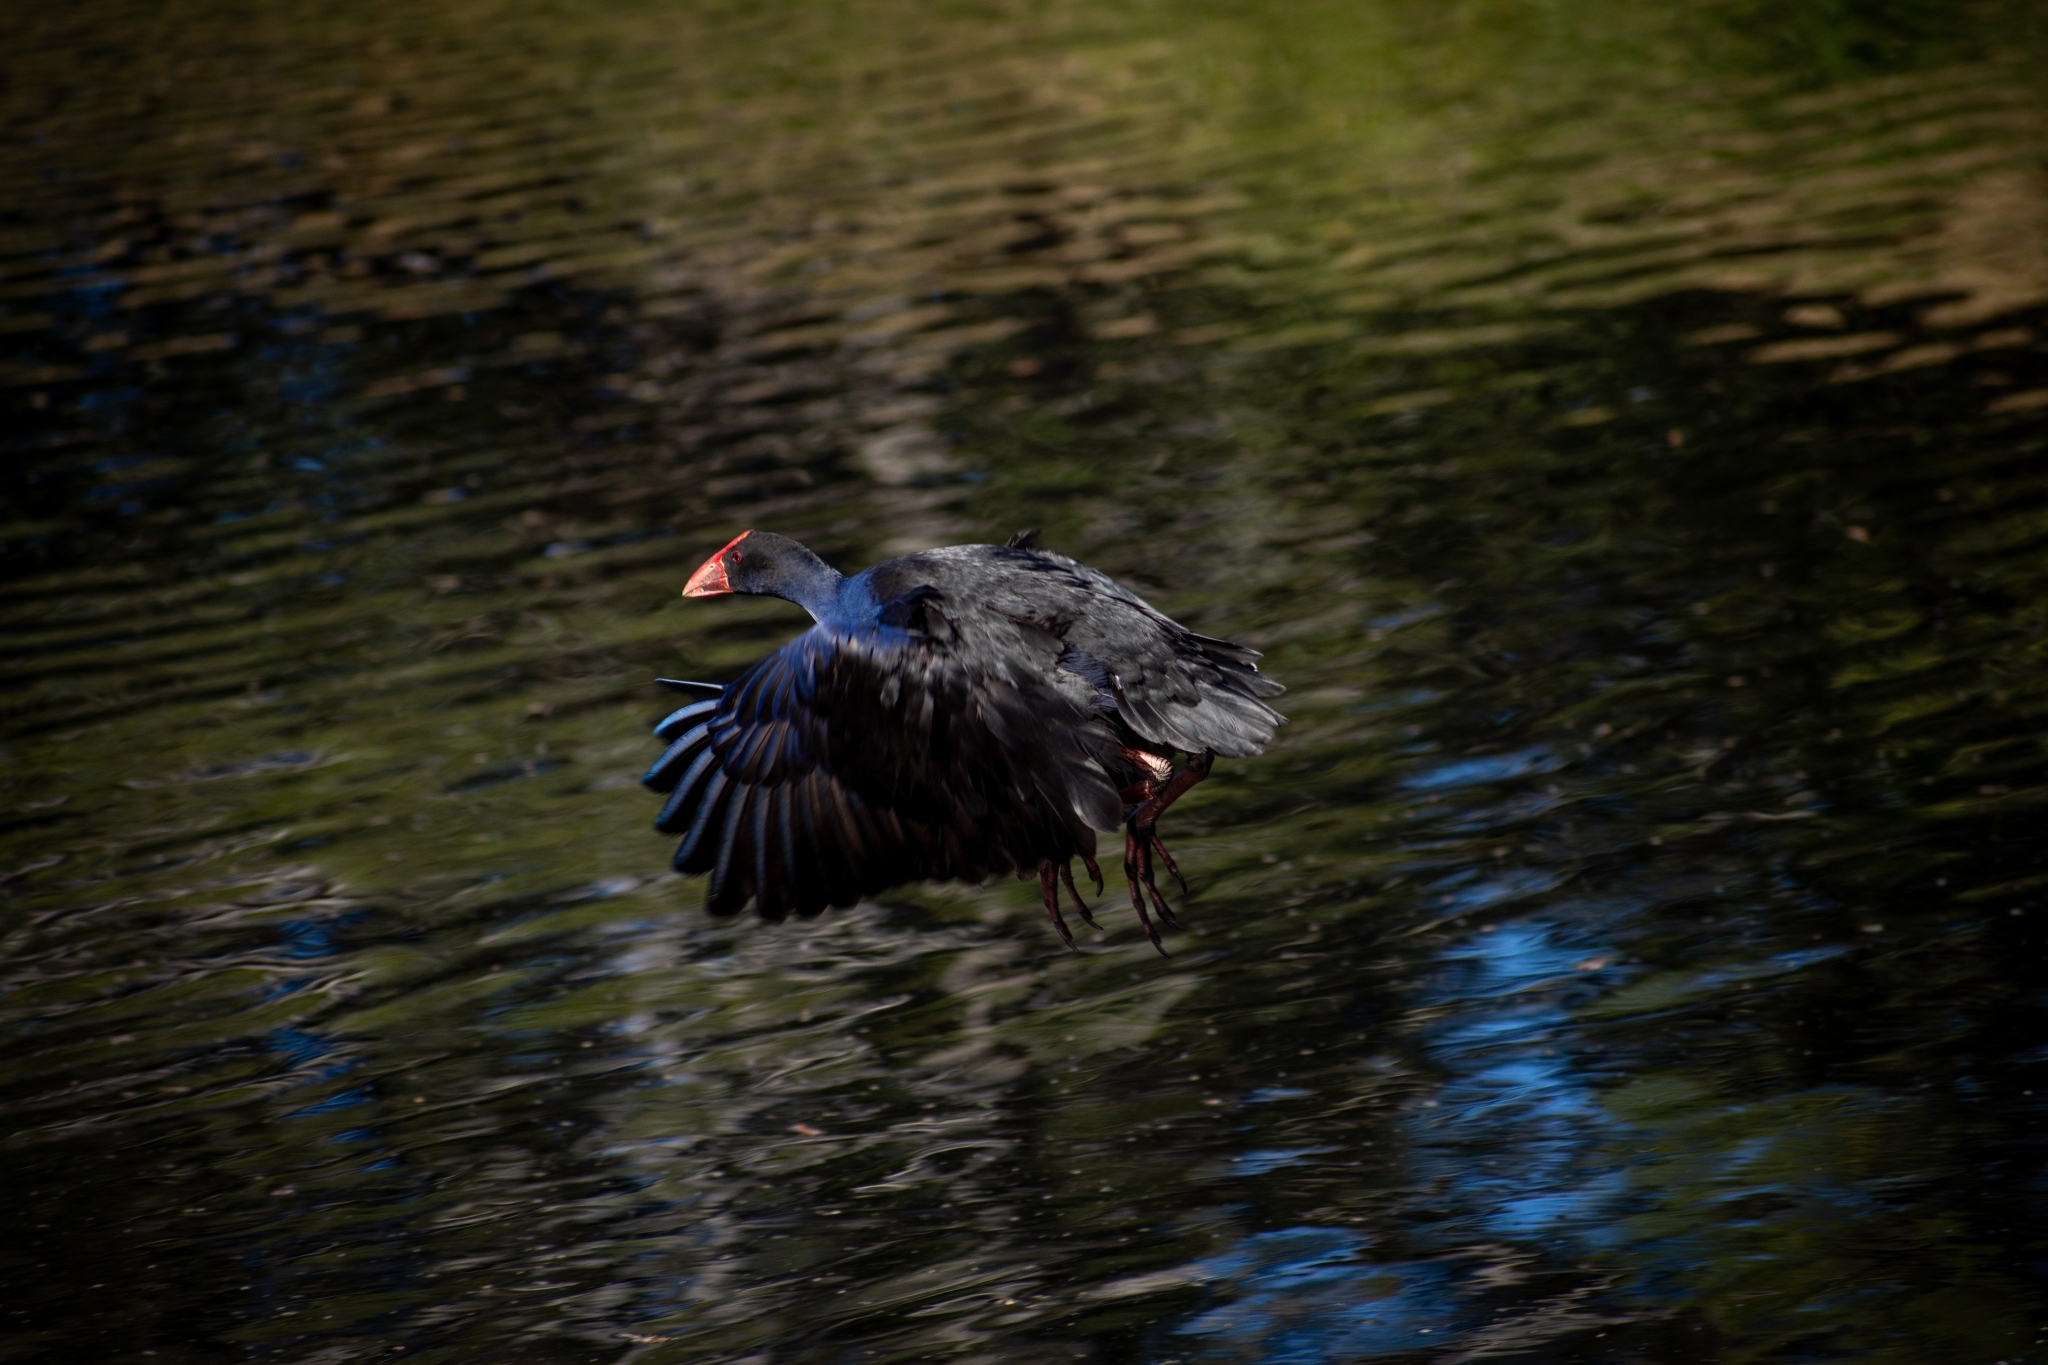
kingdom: Animalia
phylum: Chordata
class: Aves
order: Gruiformes
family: Rallidae
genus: Porphyrio
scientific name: Porphyrio melanotus
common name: Australasian swamphen
